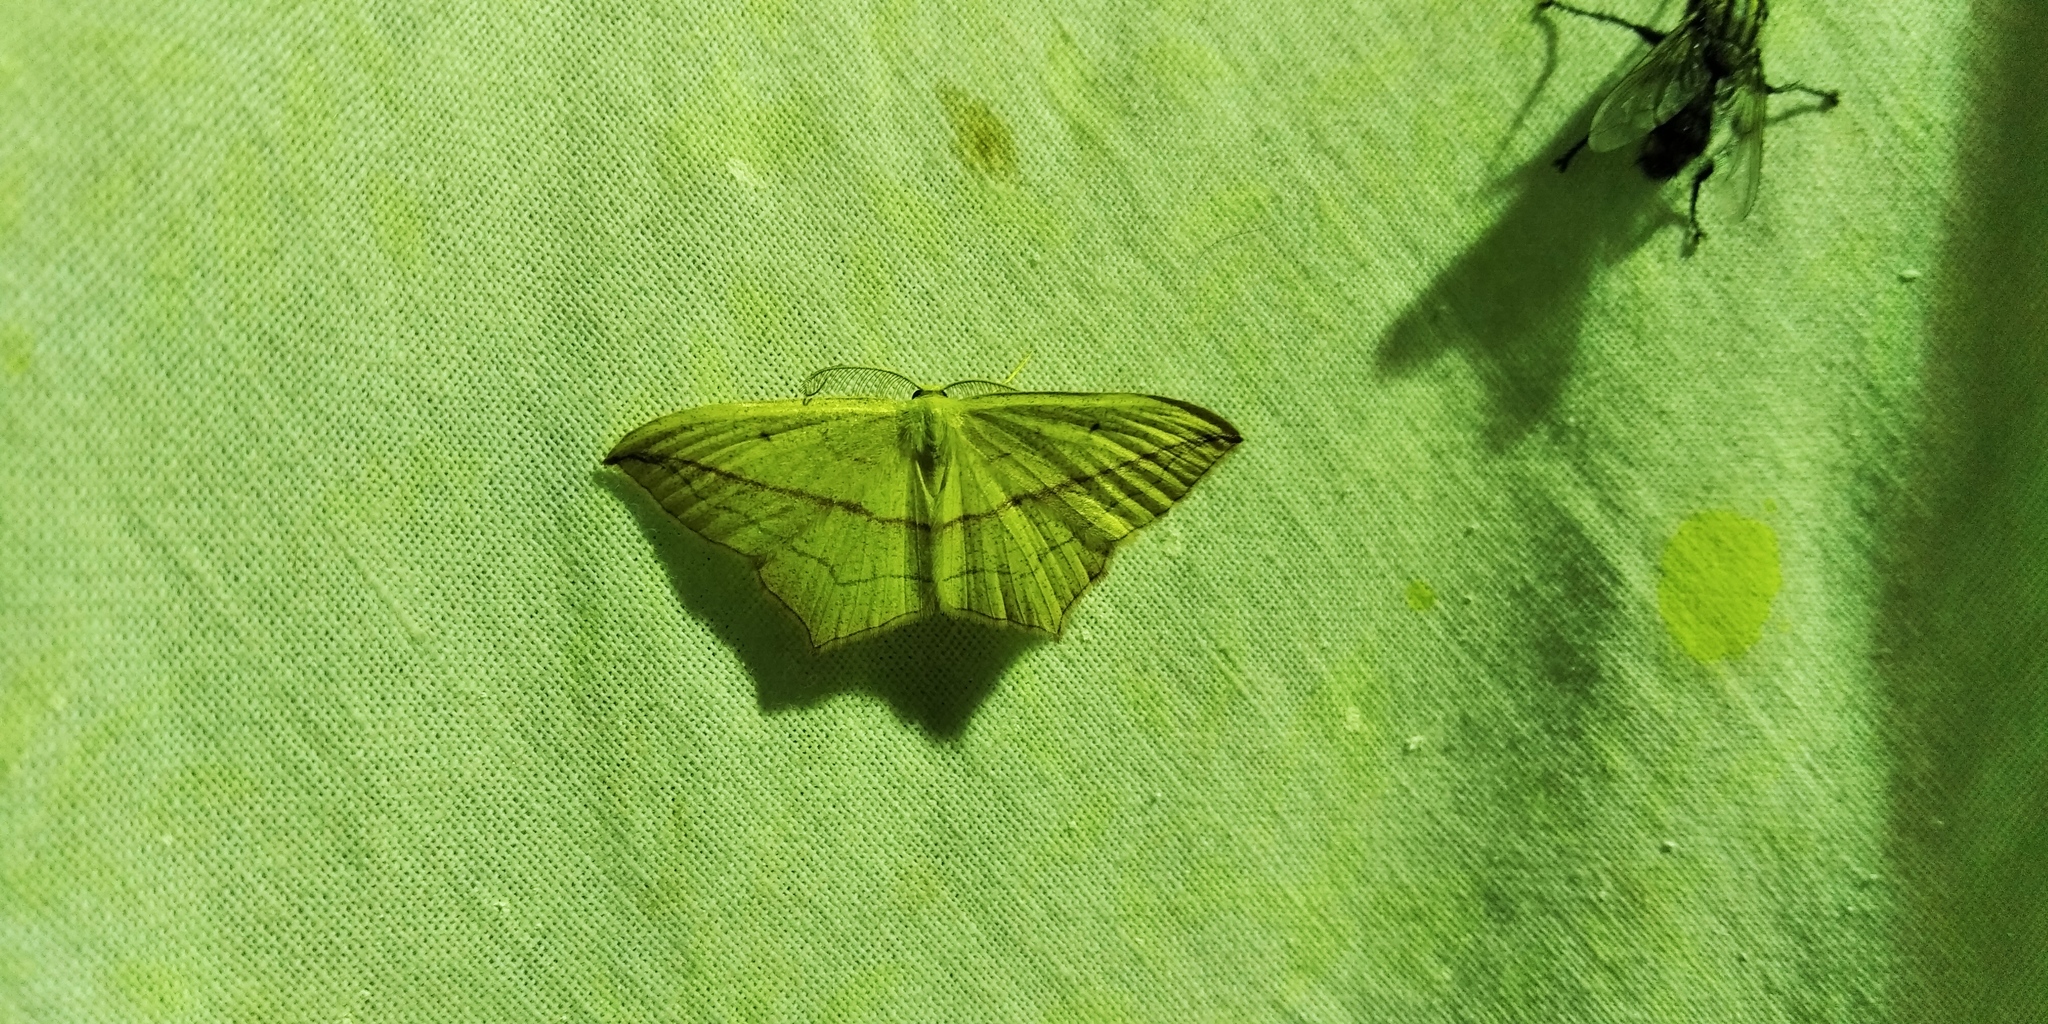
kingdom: Animalia
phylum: Arthropoda
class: Insecta
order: Lepidoptera
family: Geometridae
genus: Timandra
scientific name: Timandra comae
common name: Blood-vein
